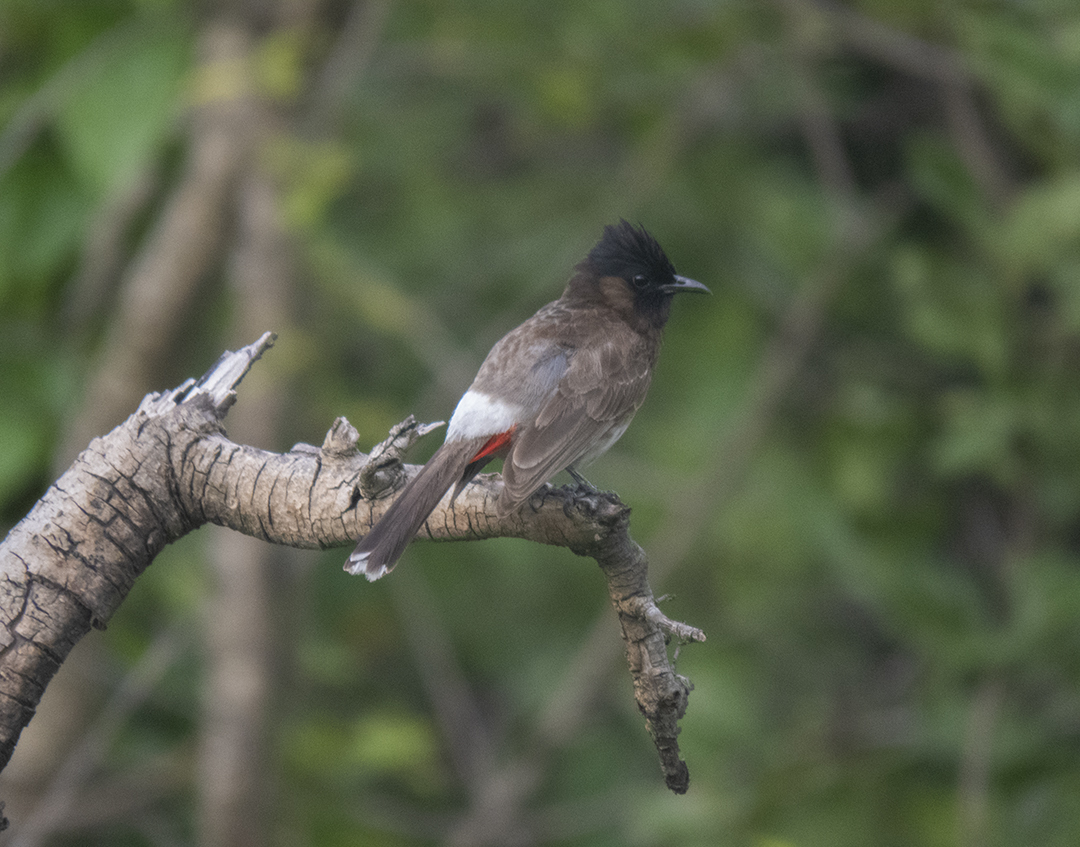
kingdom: Animalia
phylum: Chordata
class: Aves
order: Passeriformes
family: Pycnonotidae
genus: Pycnonotus
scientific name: Pycnonotus cafer
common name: Red-vented bulbul
